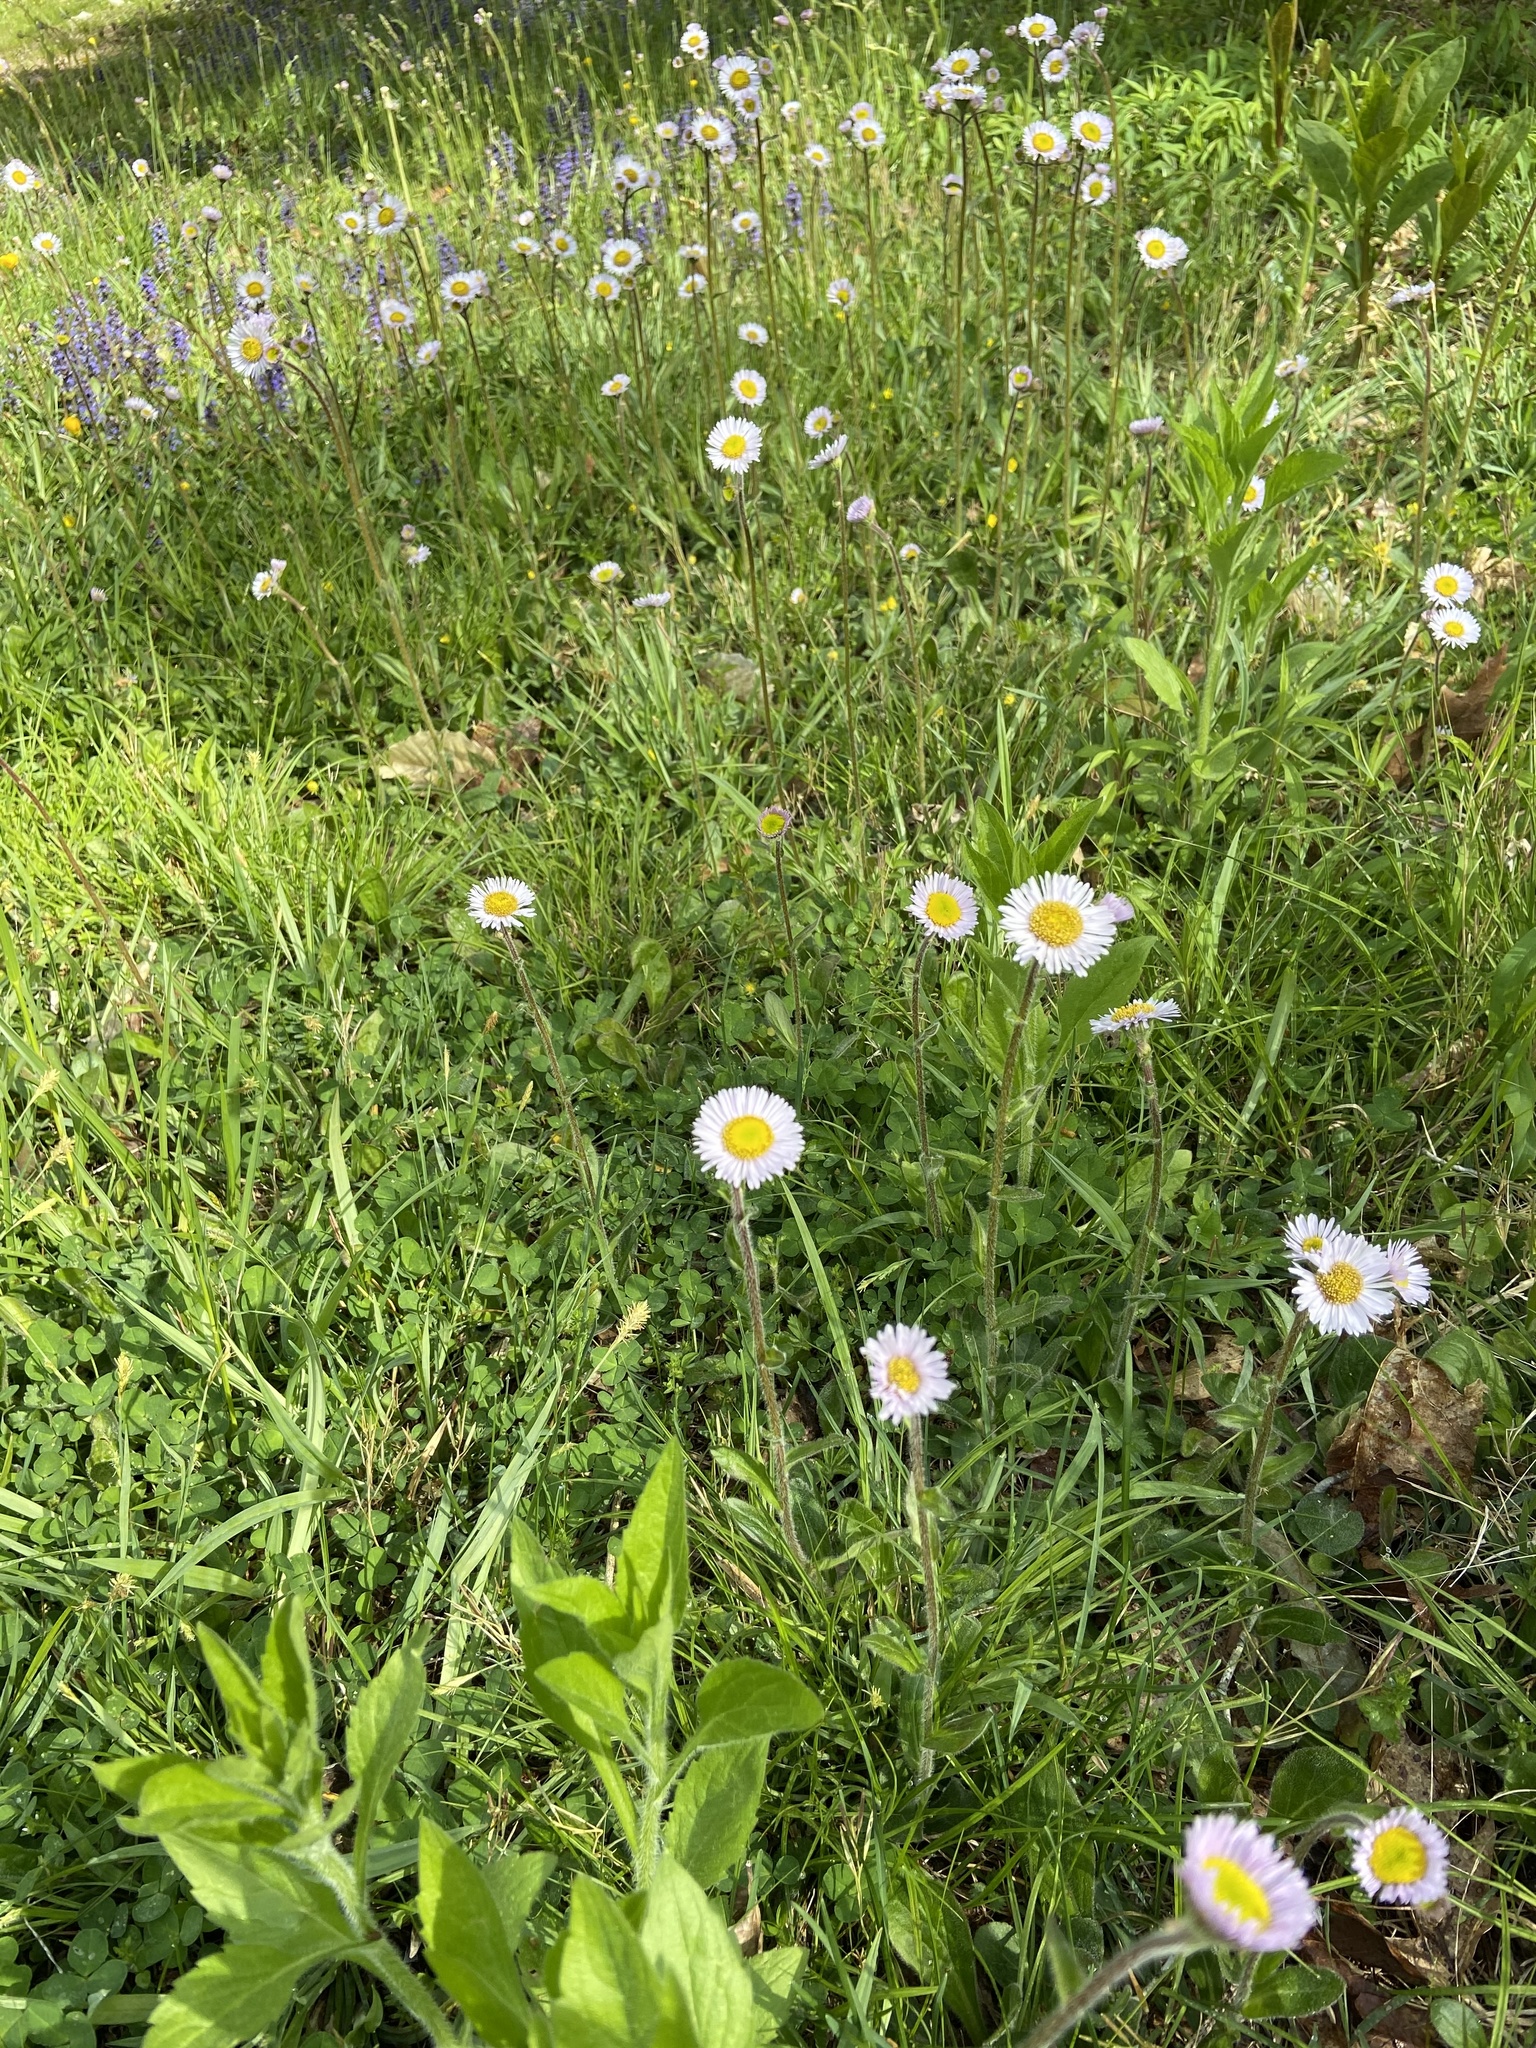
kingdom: Plantae
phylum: Tracheophyta
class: Magnoliopsida
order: Asterales
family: Asteraceae
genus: Erigeron
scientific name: Erigeron pulchellus
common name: Hairy fleabane
